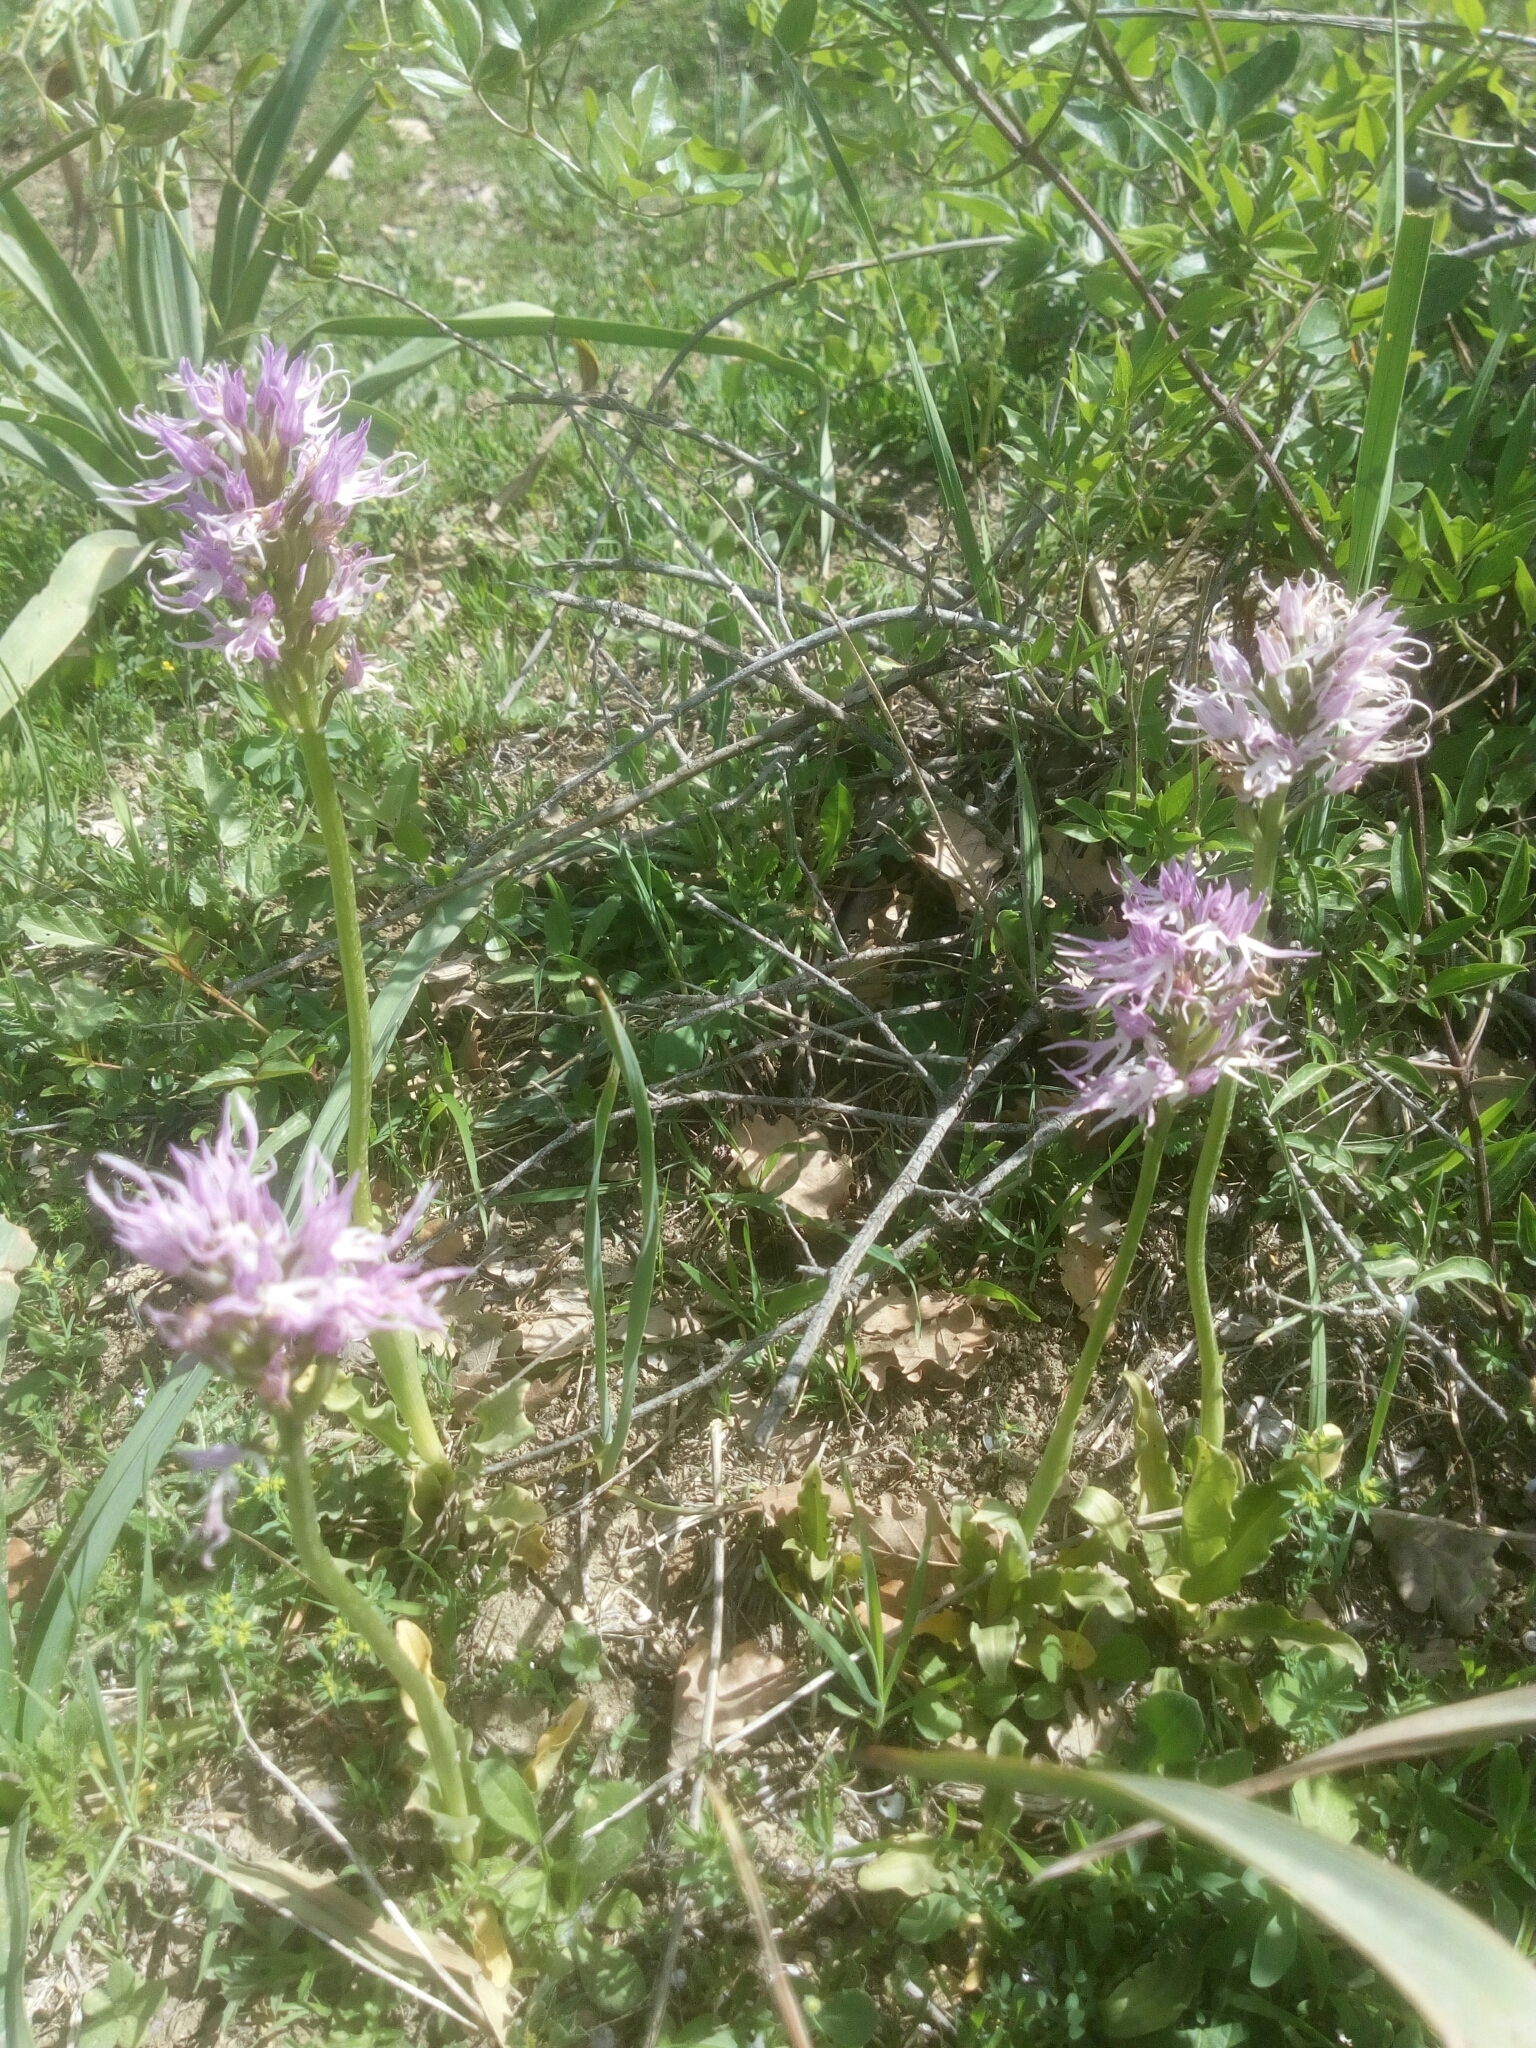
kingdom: Plantae
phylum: Tracheophyta
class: Liliopsida
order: Asparagales
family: Orchidaceae
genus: Orchis
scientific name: Orchis italica
